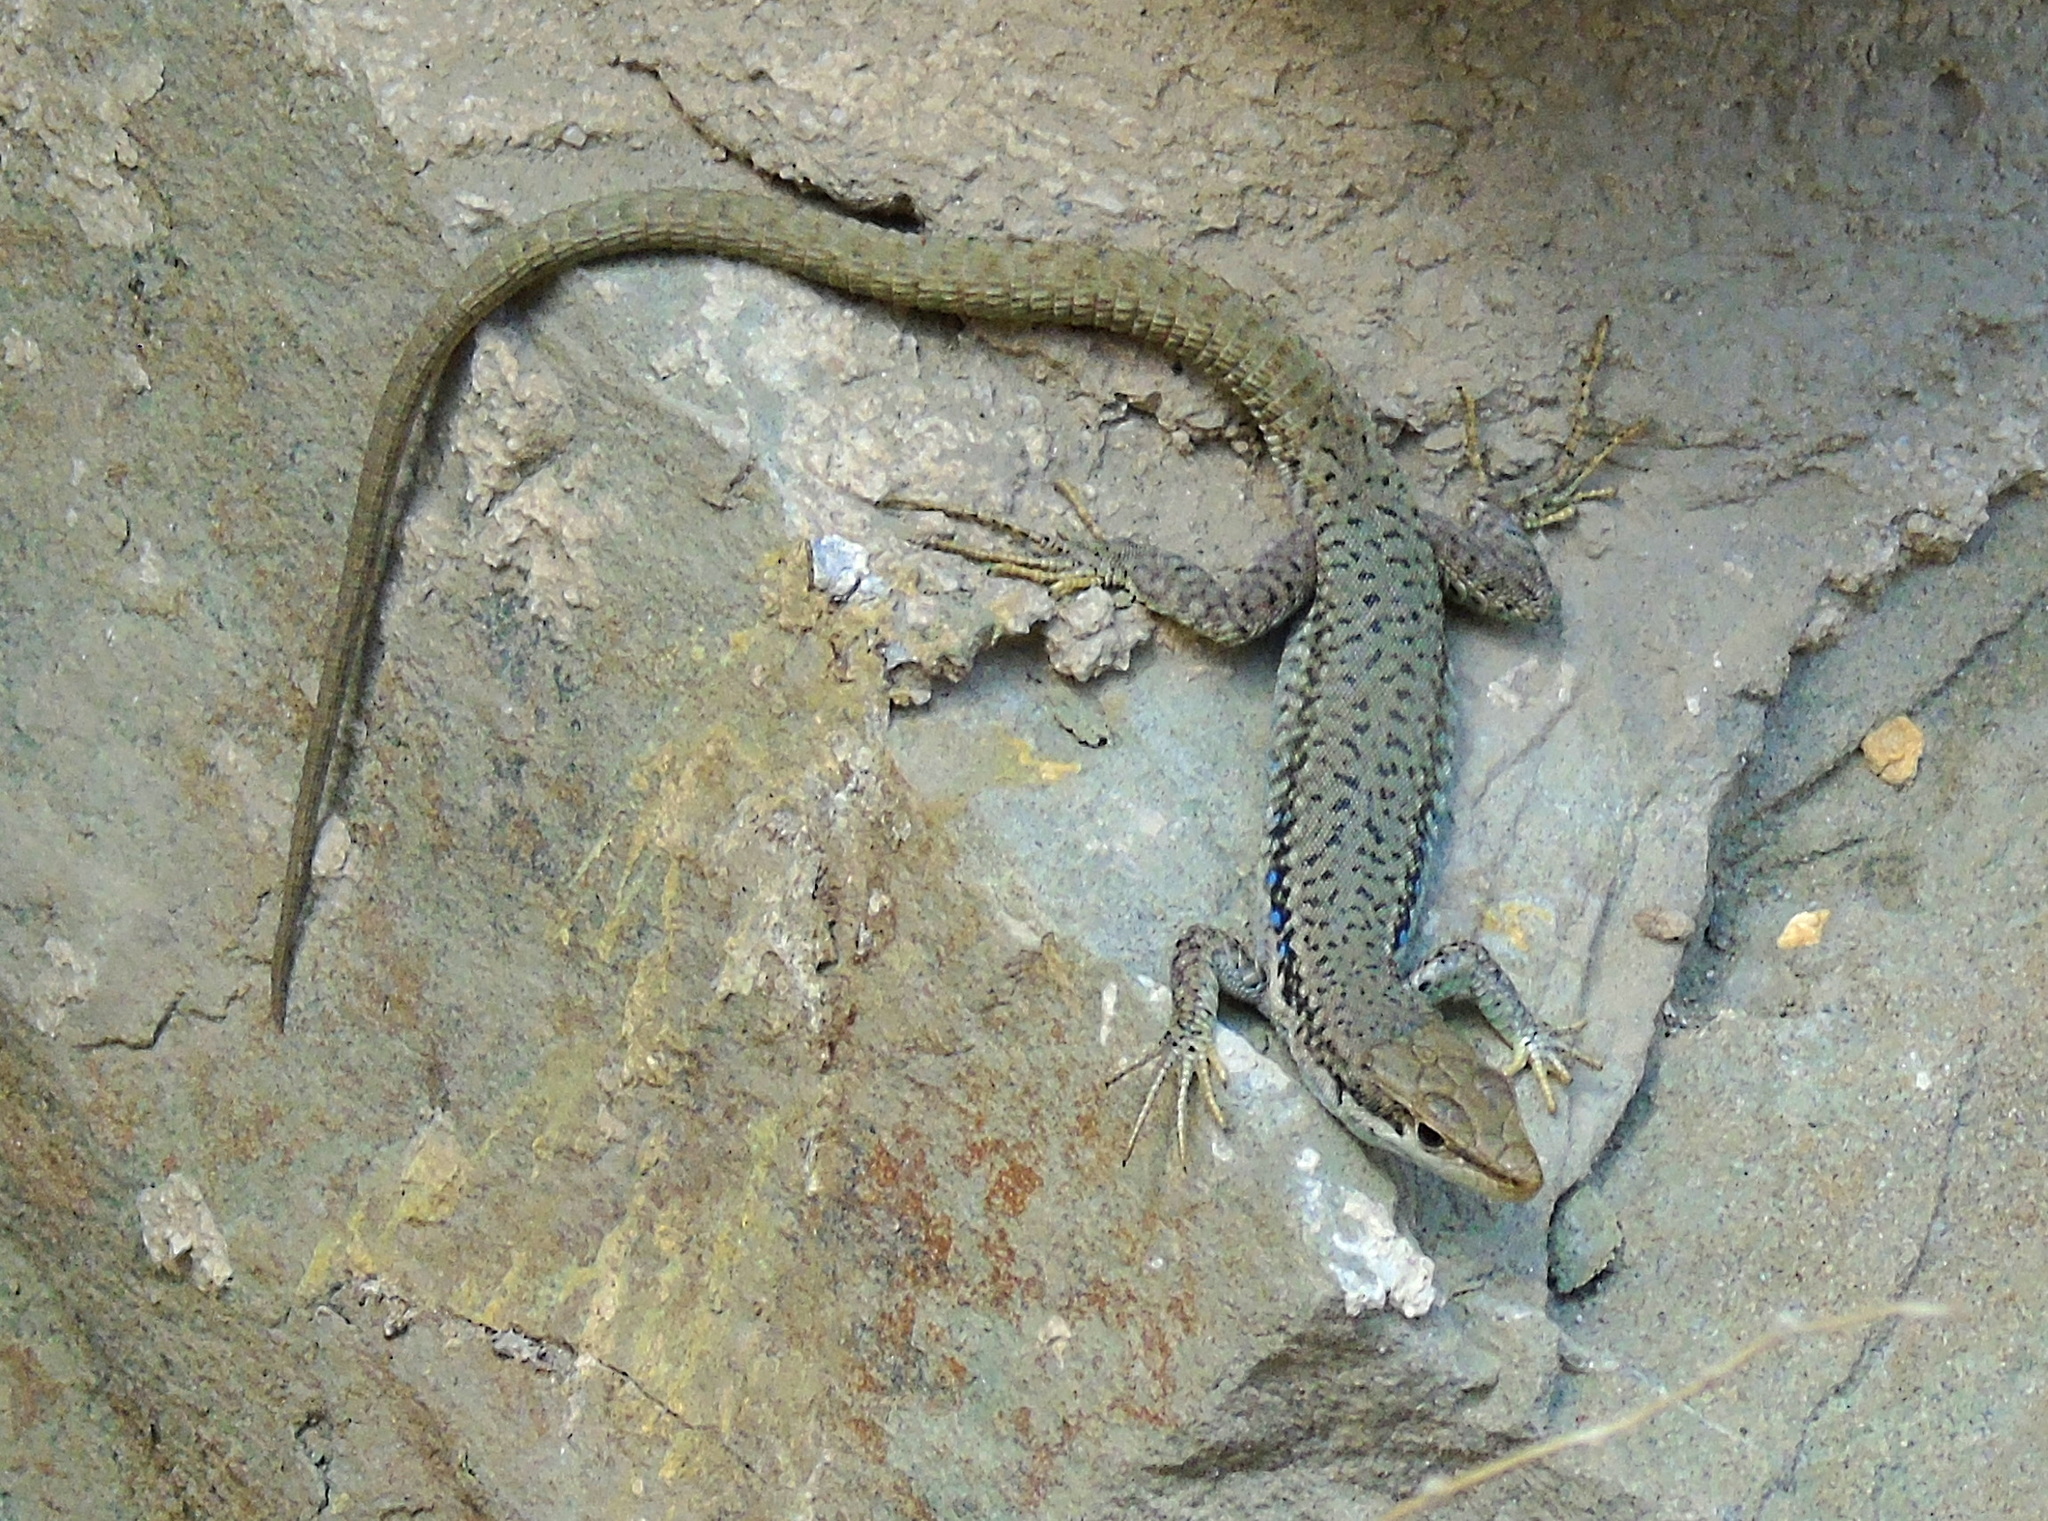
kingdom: Animalia
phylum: Chordata
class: Squamata
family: Lacertidae
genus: Darevskia
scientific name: Darevskia raddei
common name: Radde's lizard
